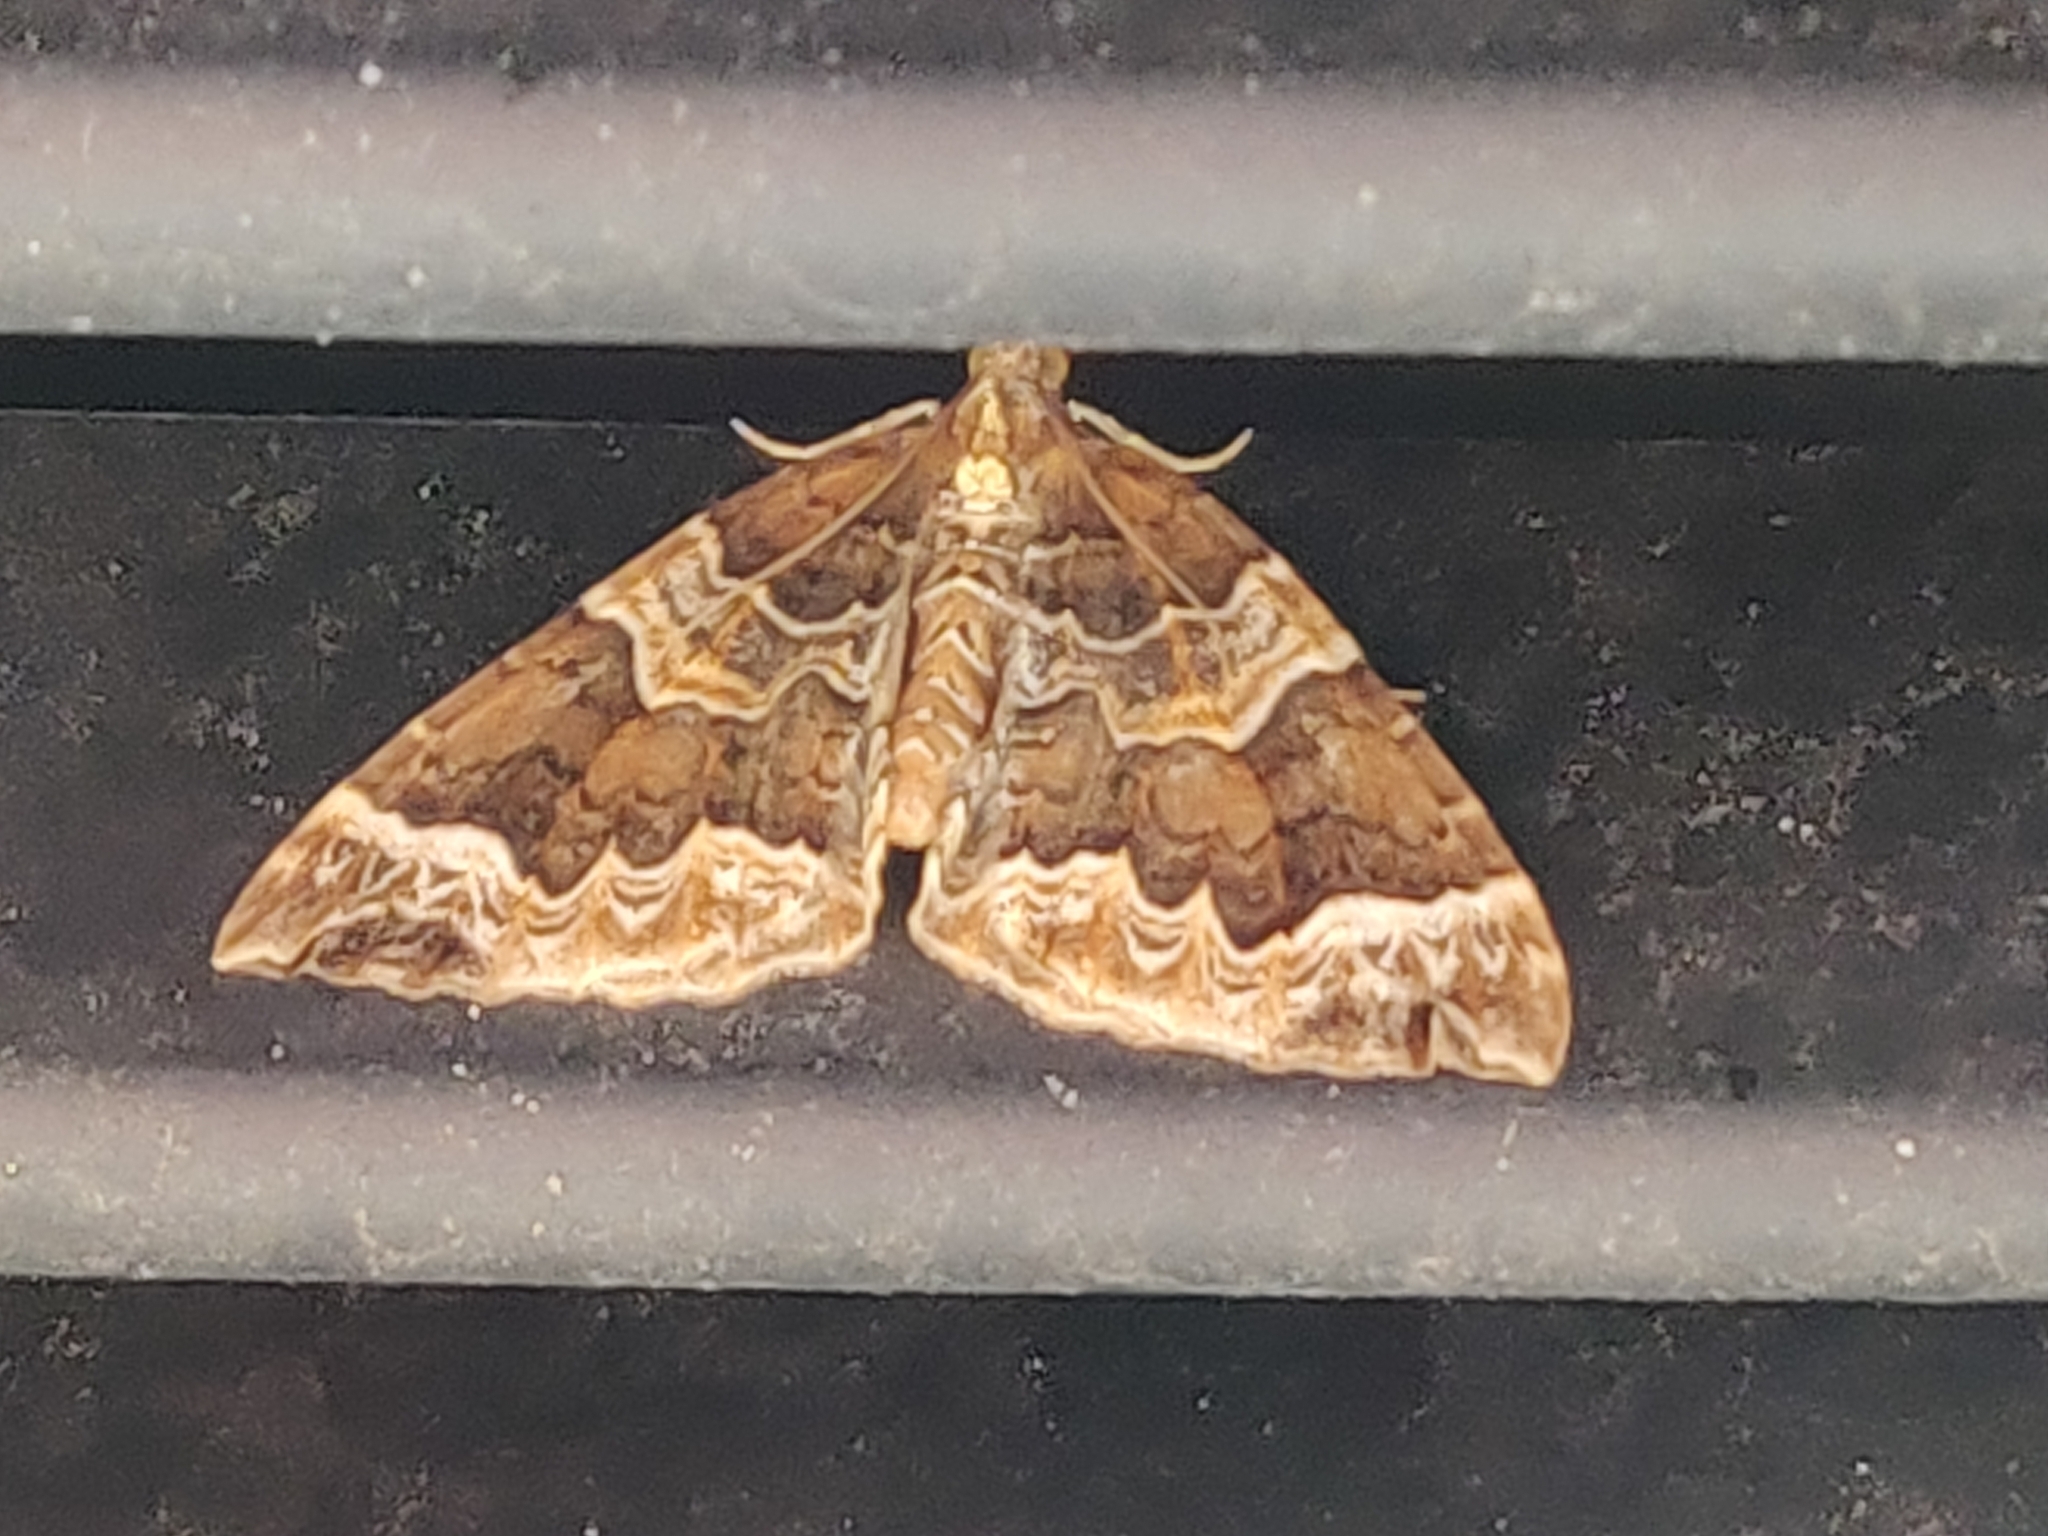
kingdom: Animalia
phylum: Arthropoda
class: Insecta
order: Lepidoptera
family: Geometridae
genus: Eulithis
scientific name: Eulithis prunata
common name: Phoenix
